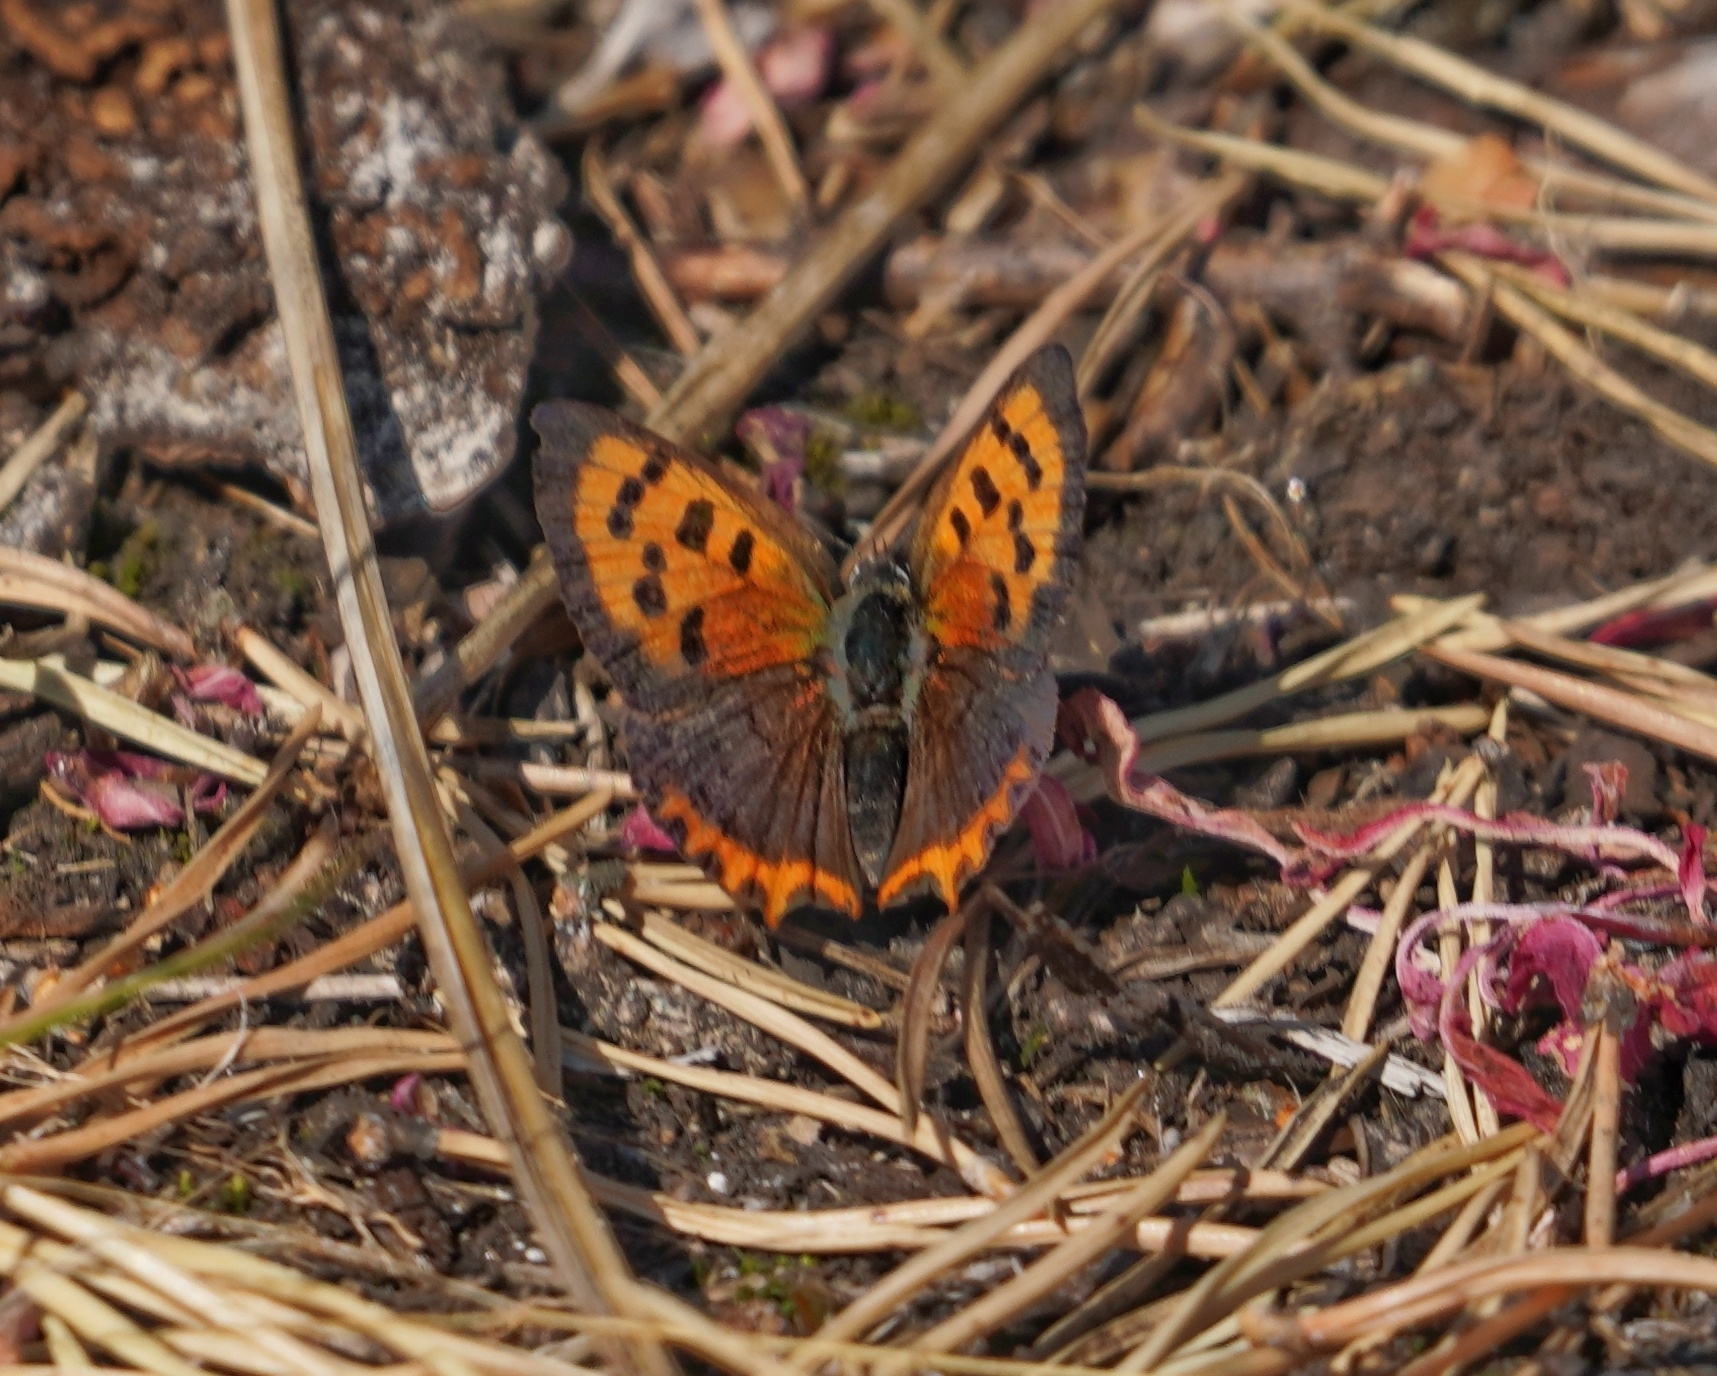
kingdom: Animalia
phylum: Arthropoda
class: Insecta
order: Lepidoptera
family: Lycaenidae
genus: Lycaena
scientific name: Lycaena phlaeas
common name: Small copper
